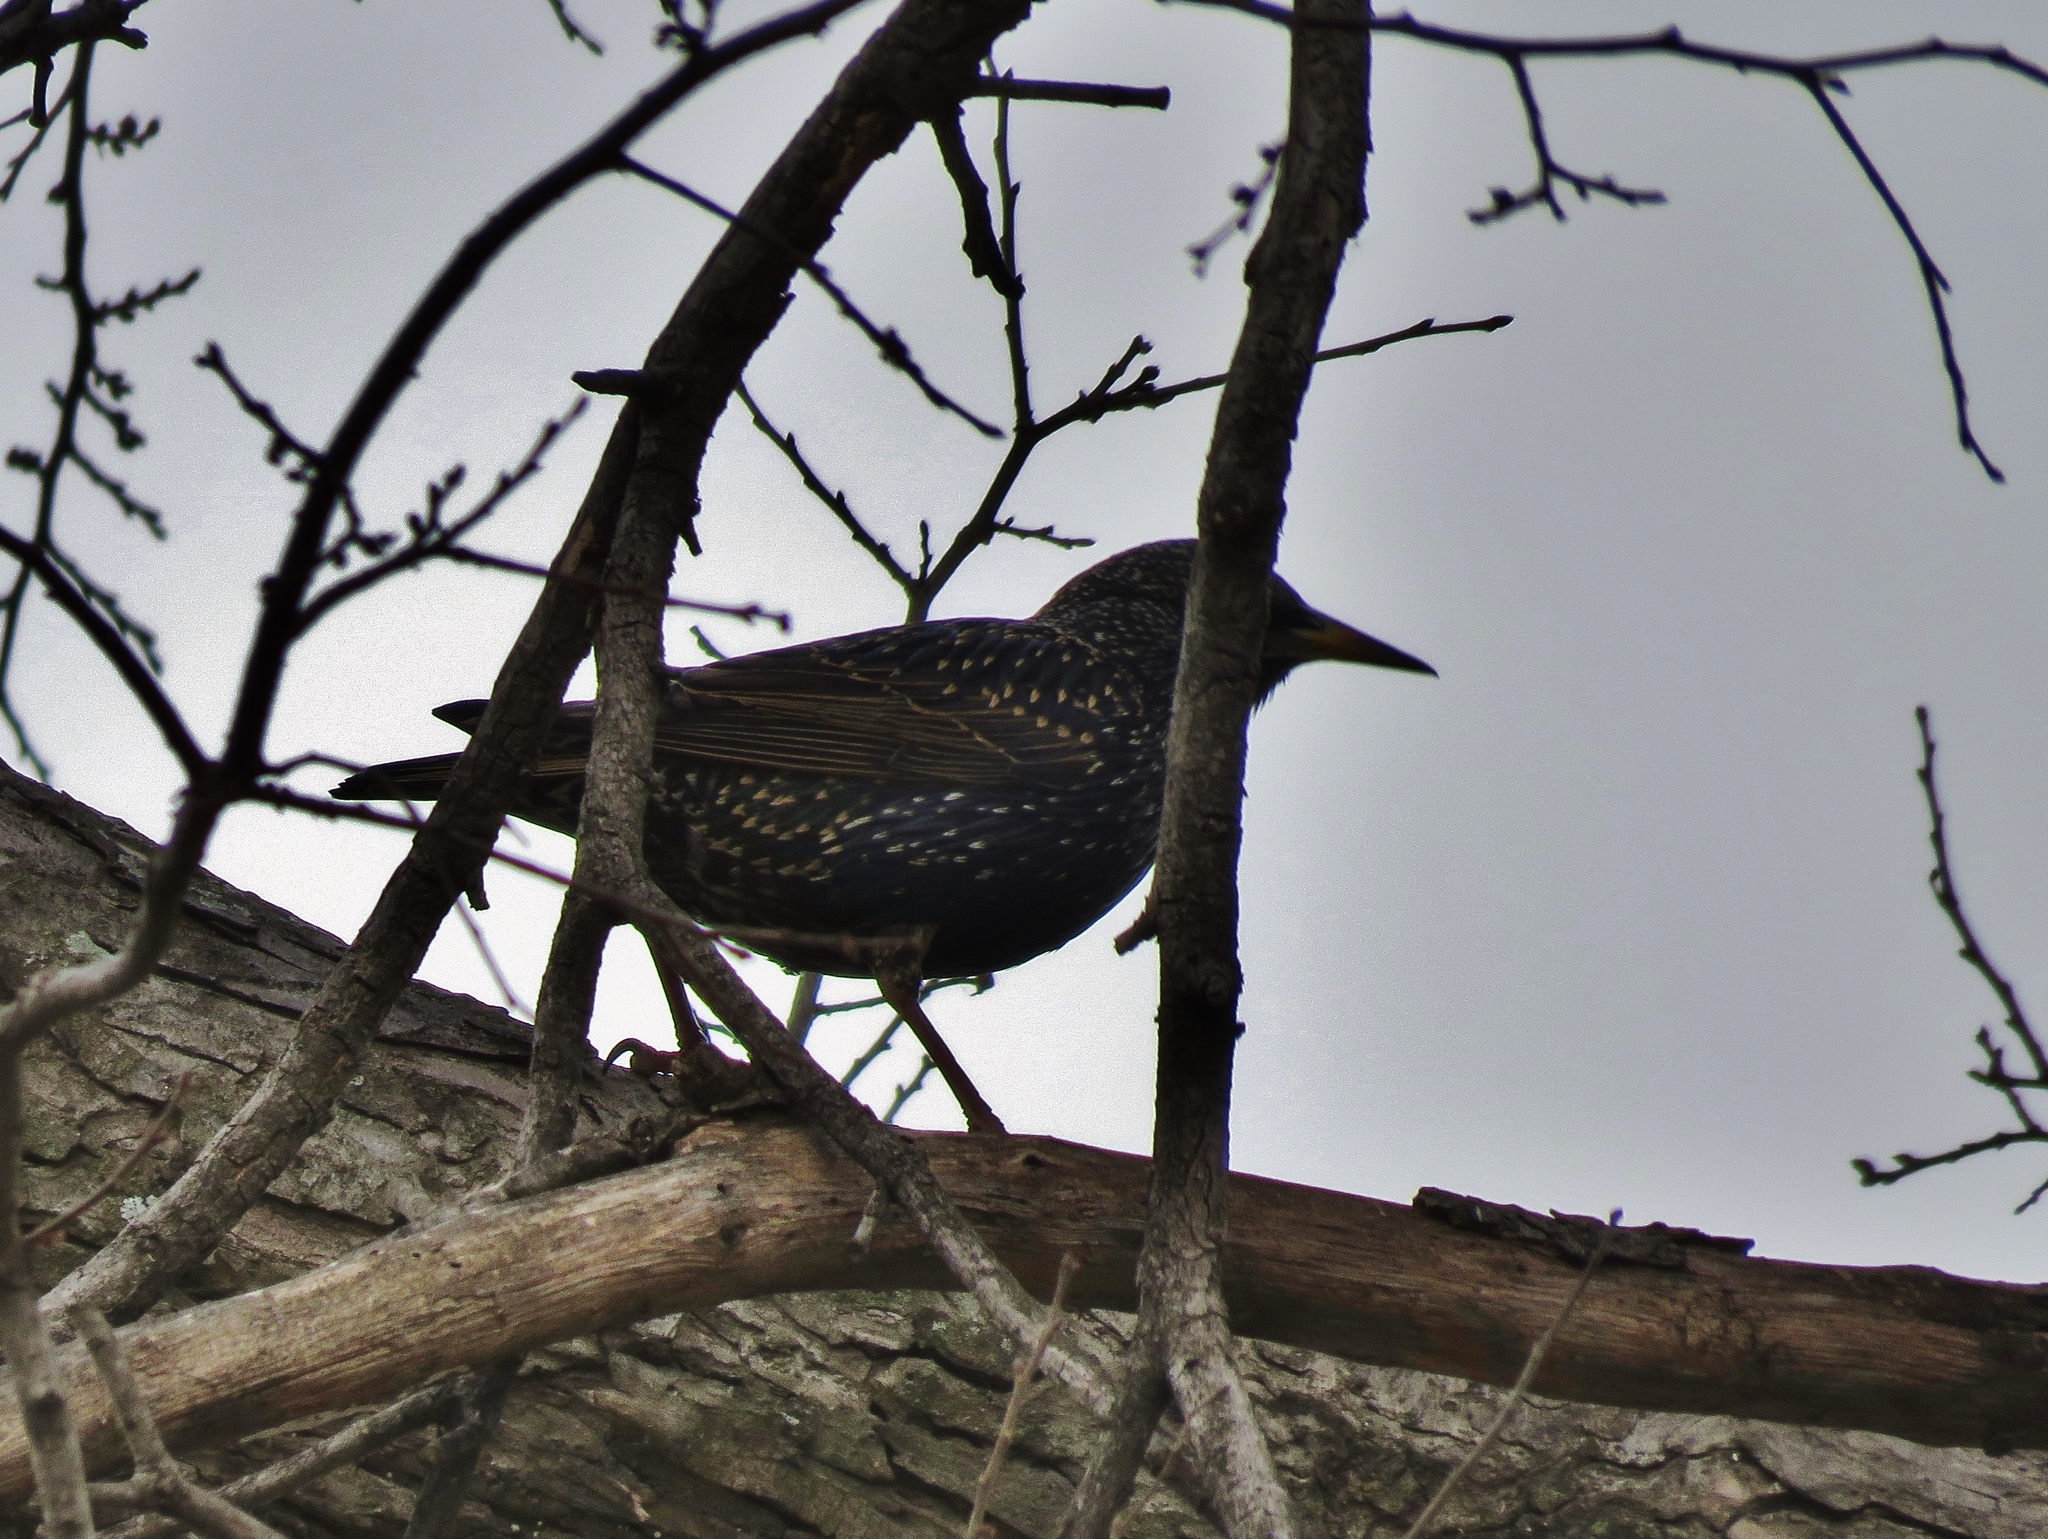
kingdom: Animalia
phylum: Chordata
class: Aves
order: Passeriformes
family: Sturnidae
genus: Sturnus
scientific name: Sturnus vulgaris
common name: Common starling
